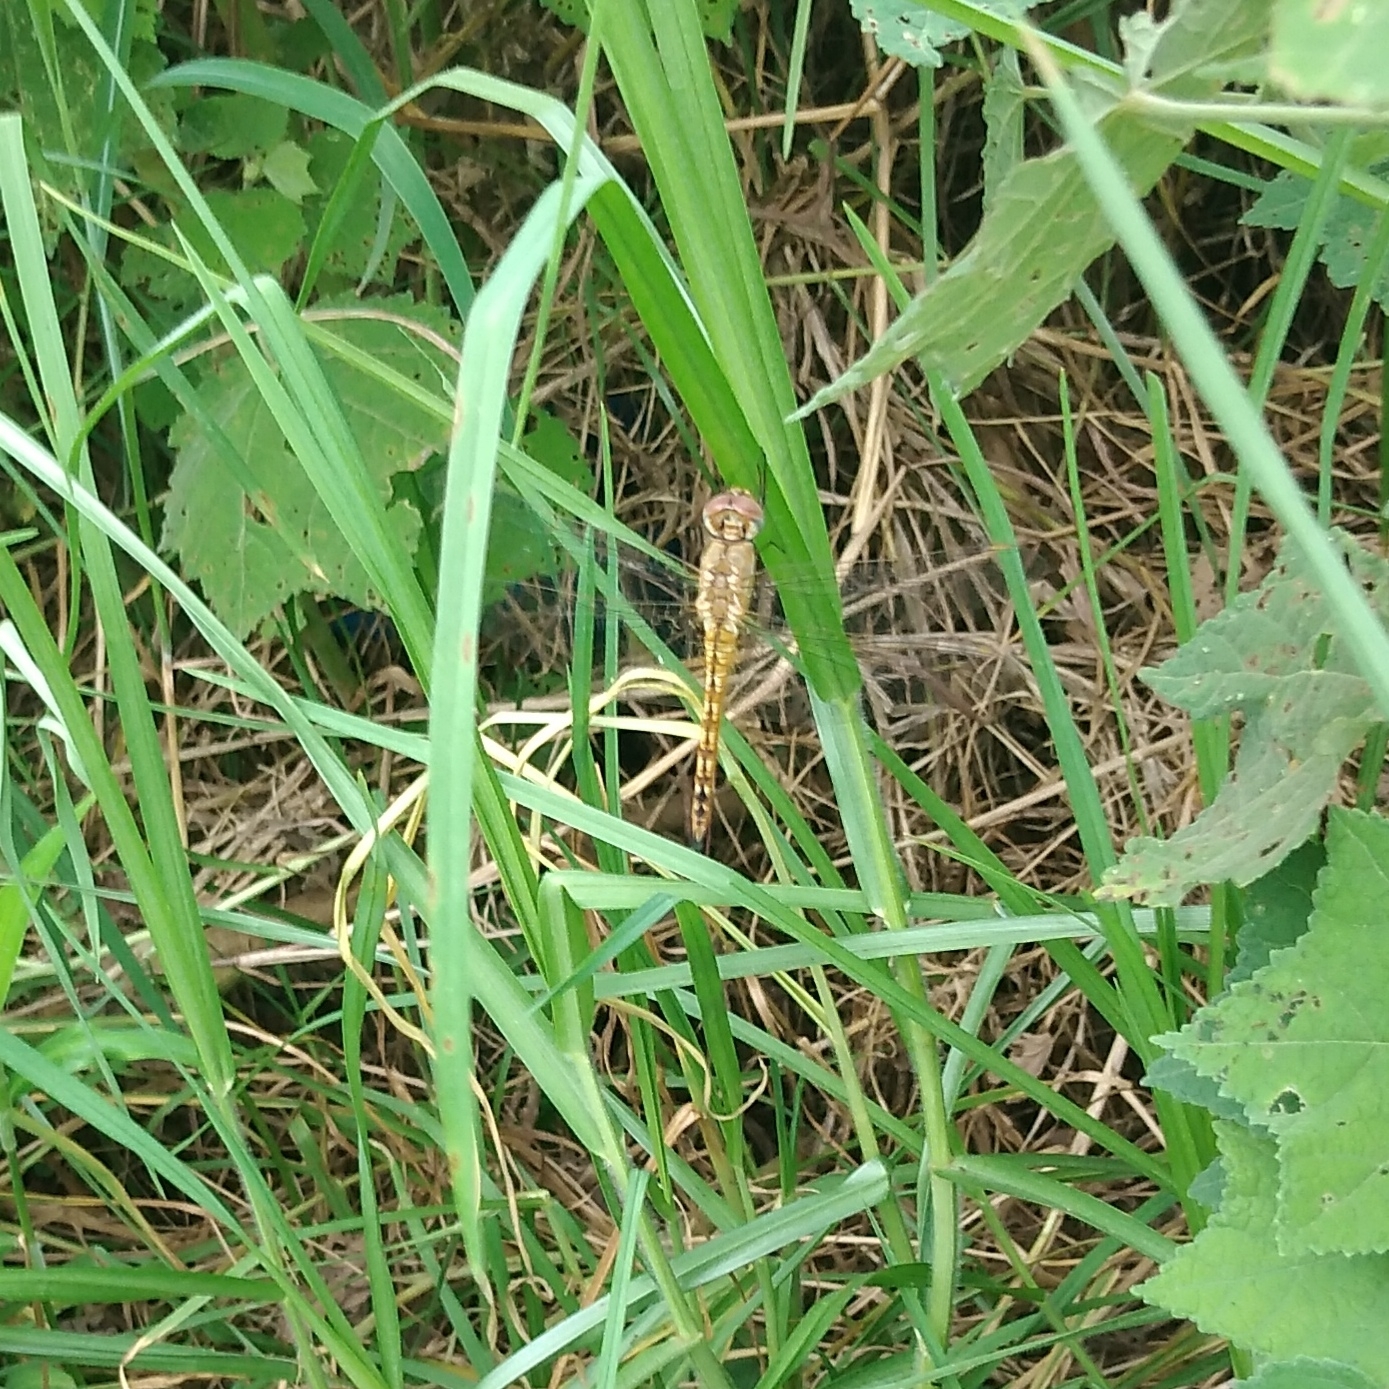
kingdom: Animalia
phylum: Arthropoda
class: Insecta
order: Odonata
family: Libellulidae
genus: Pantala
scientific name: Pantala flavescens
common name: Wandering glider
